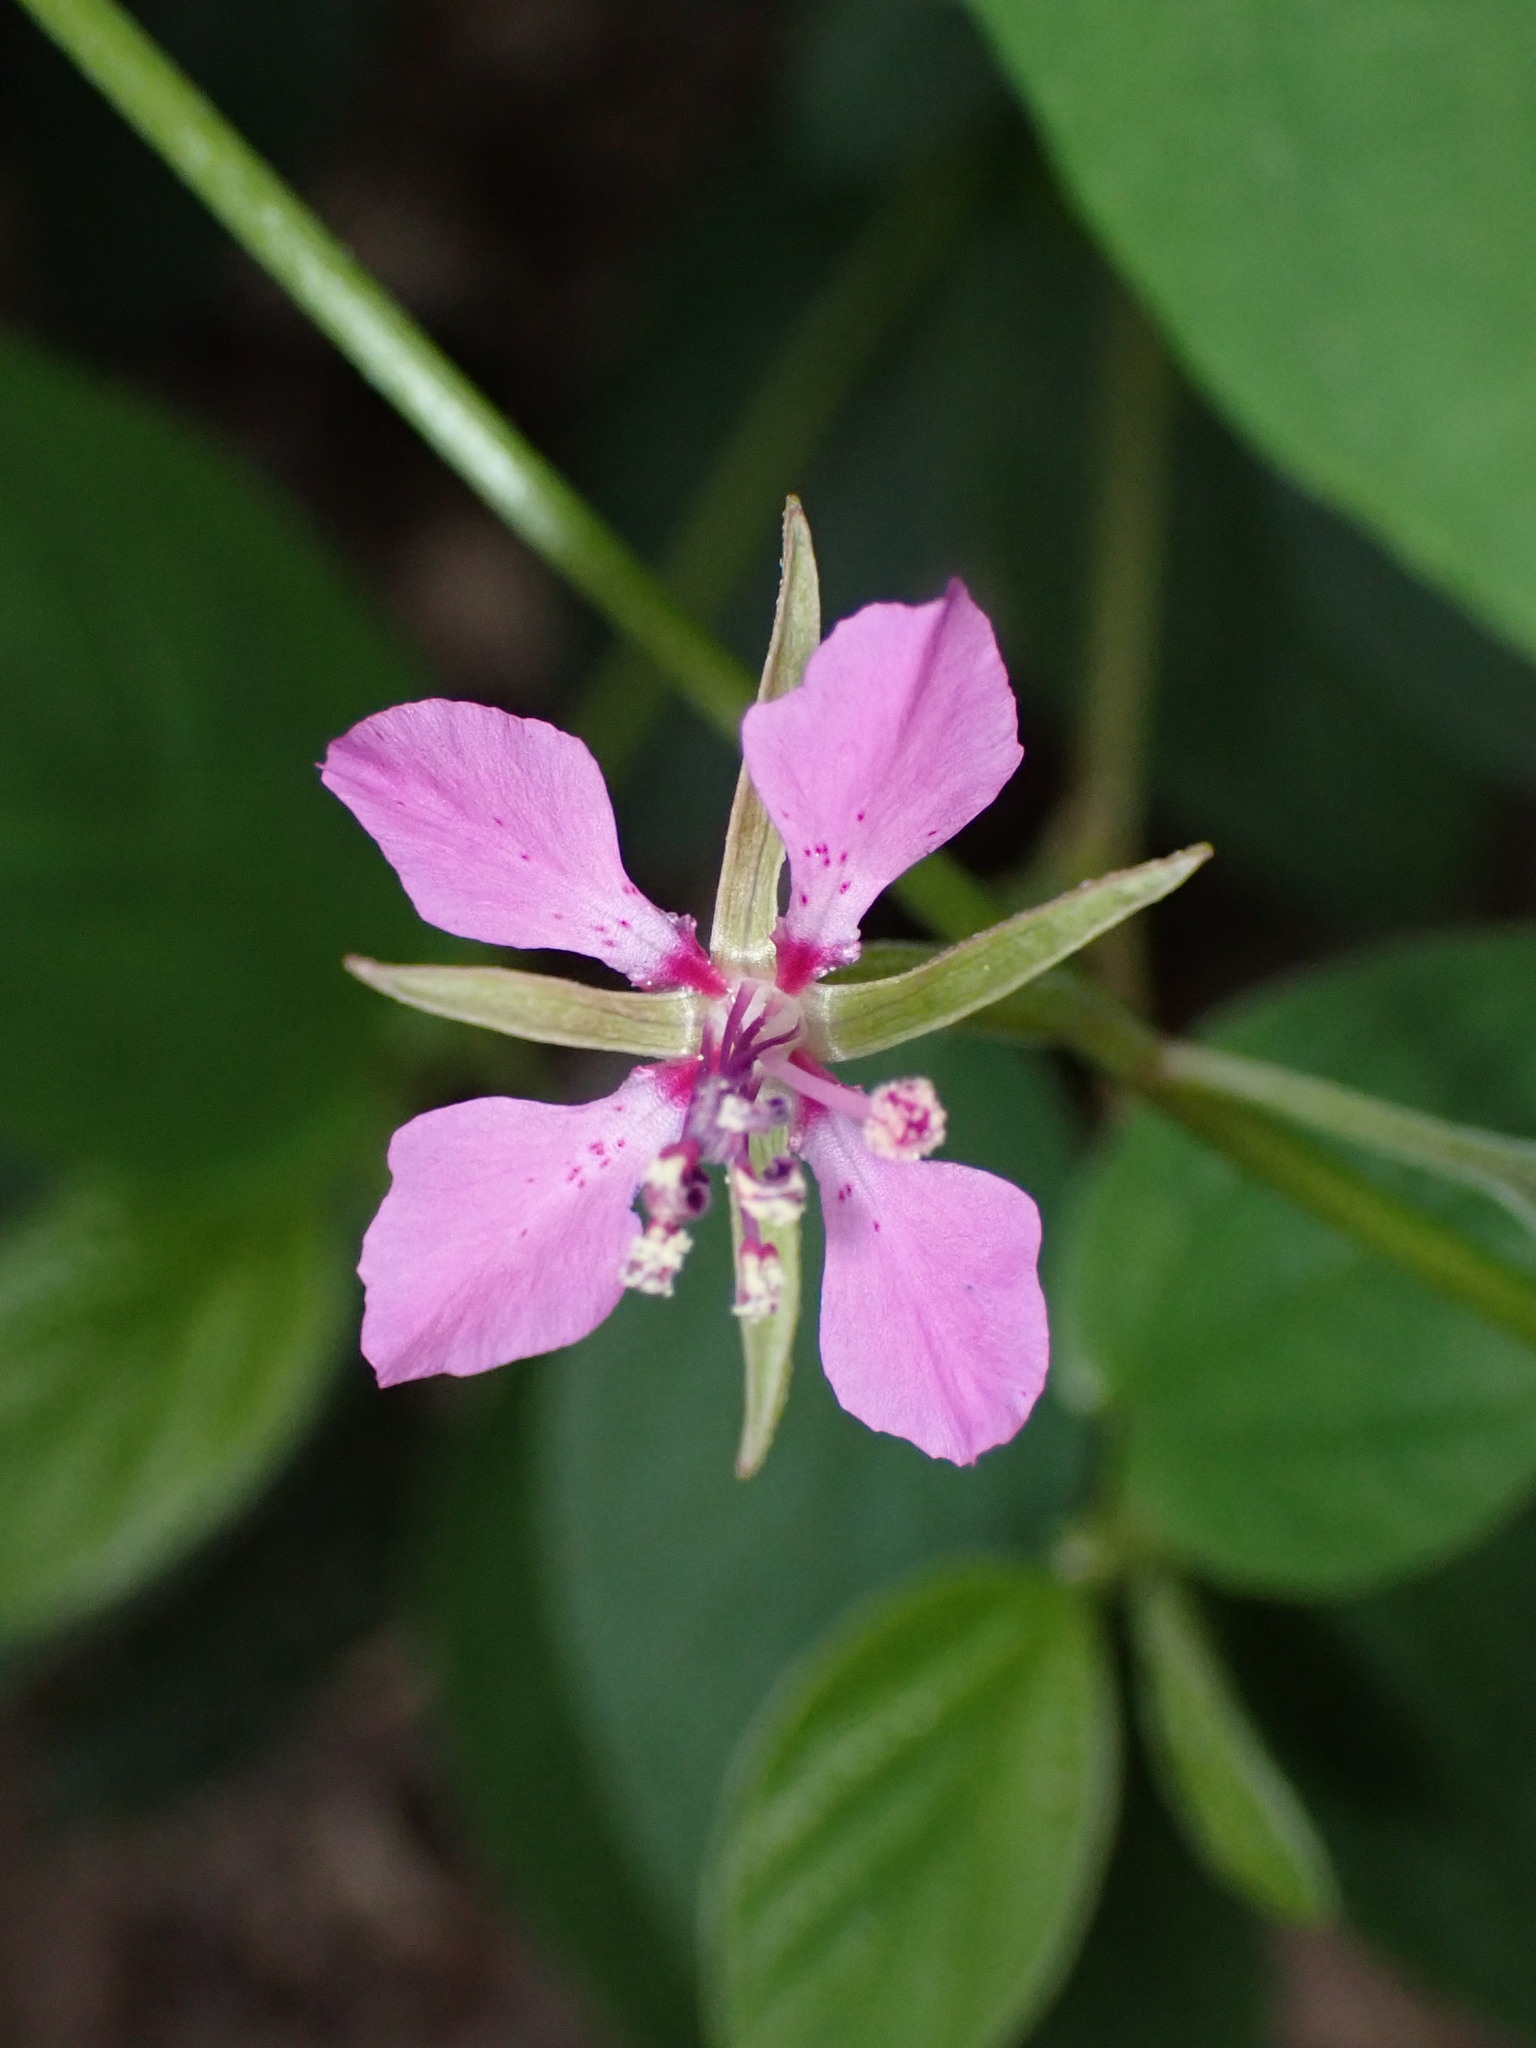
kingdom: Plantae
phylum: Tracheophyta
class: Magnoliopsida
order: Myrtales
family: Onagraceae
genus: Clarkia
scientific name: Clarkia rhomboidea
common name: Broadleaf clarkia
